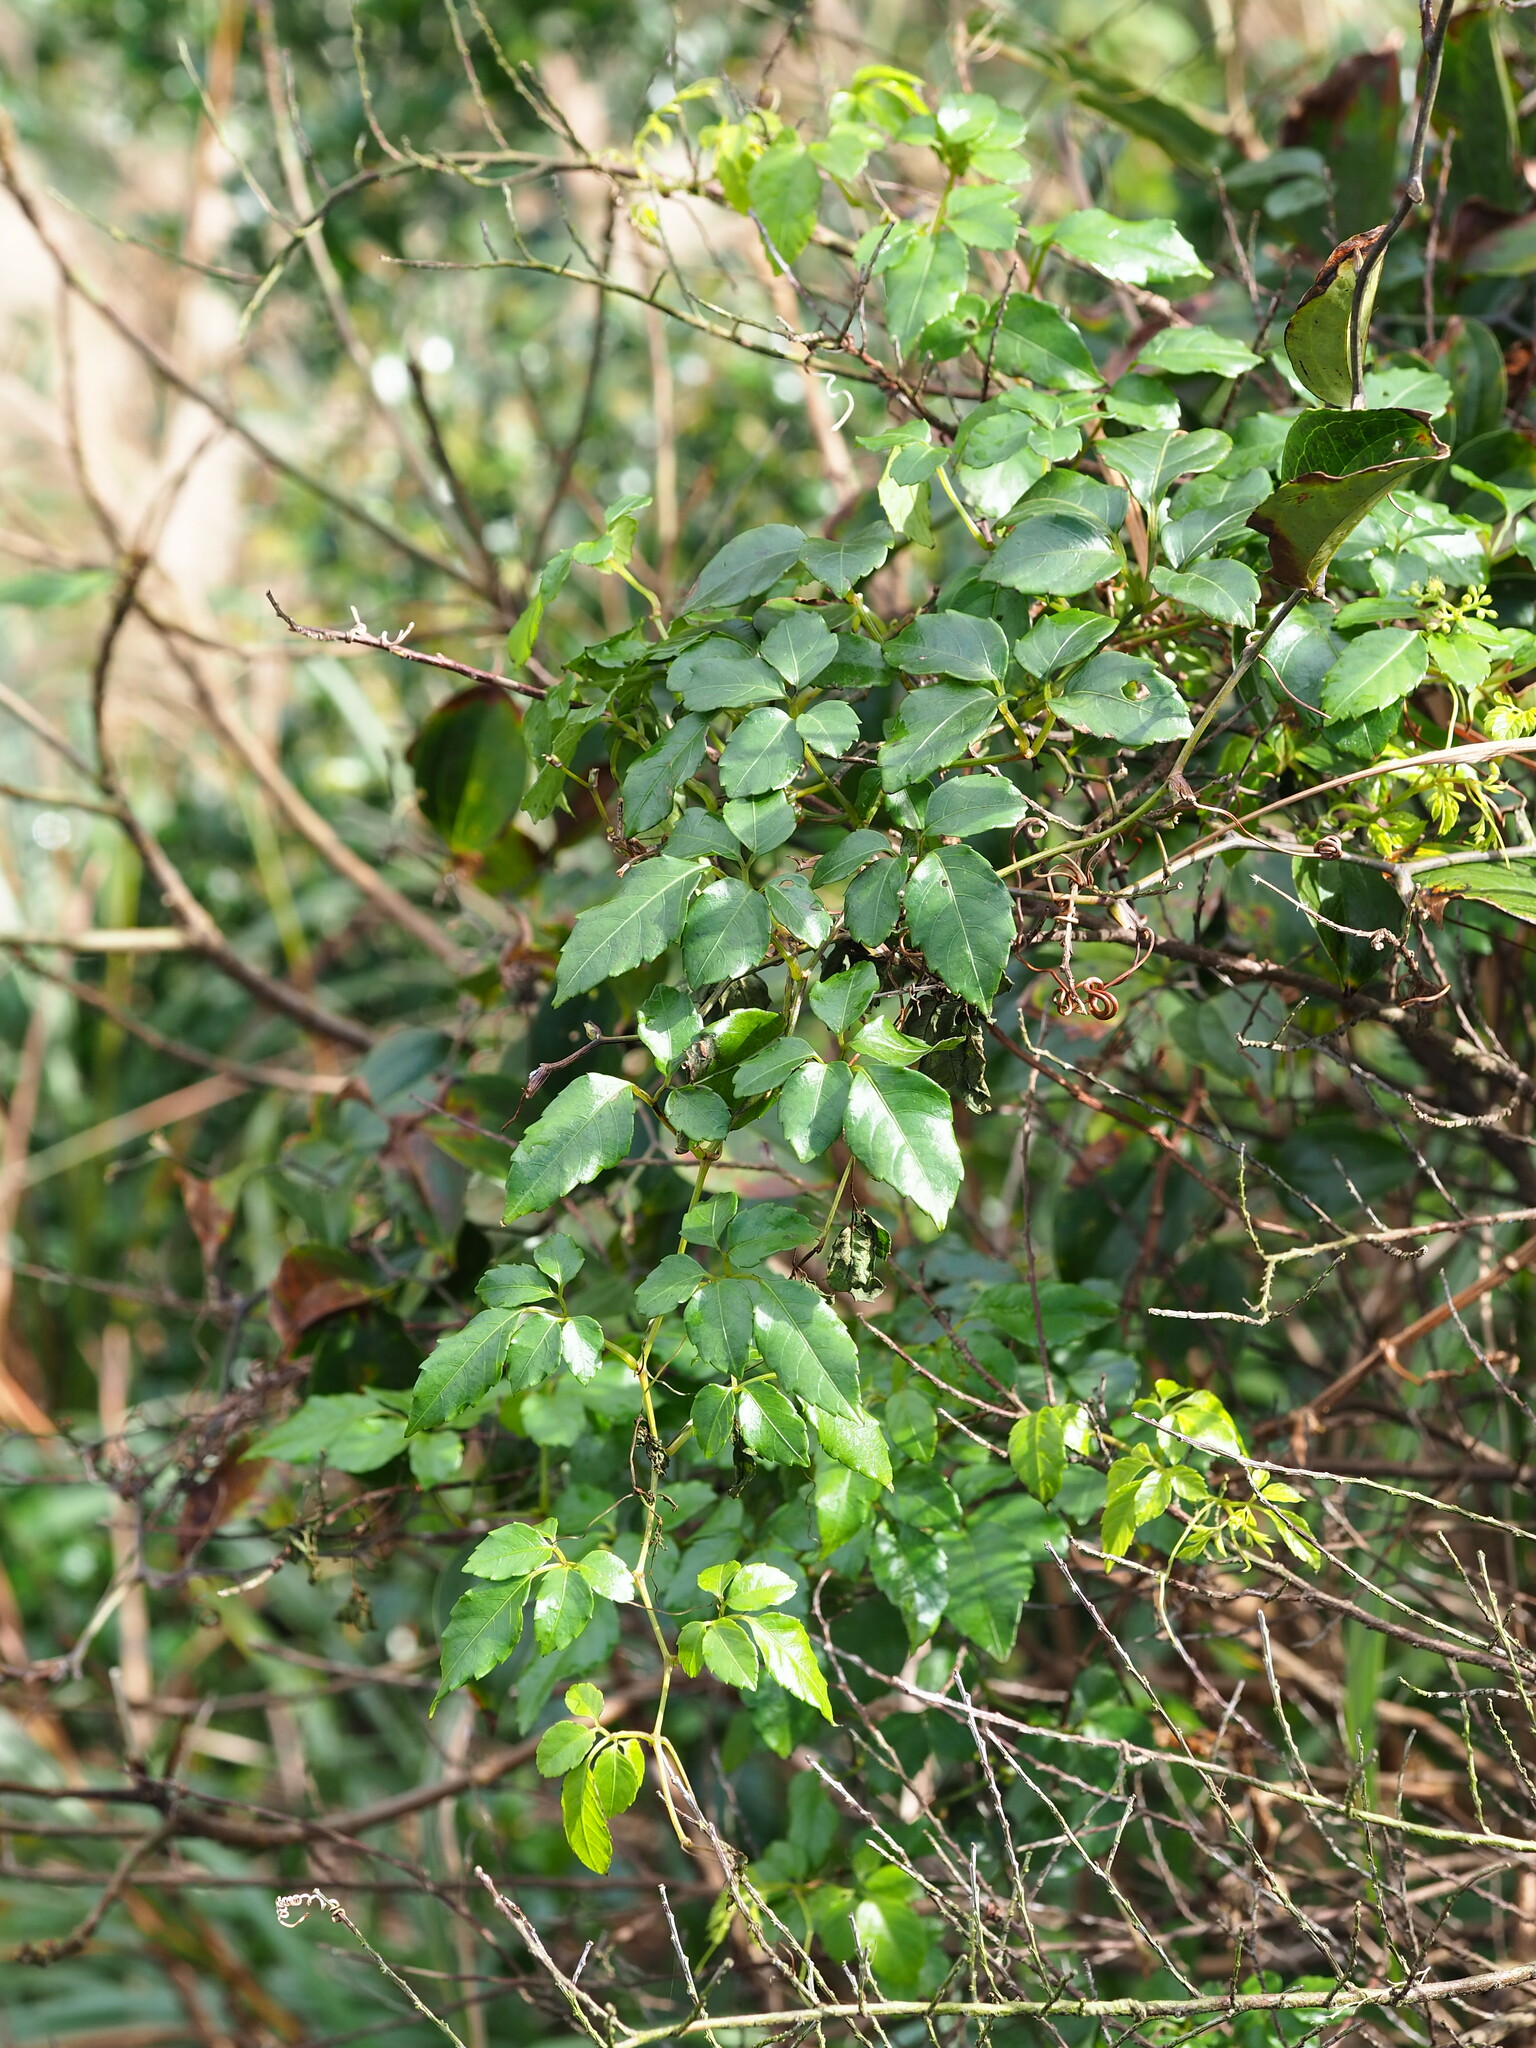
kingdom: Plantae
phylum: Tracheophyta
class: Magnoliopsida
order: Vitales
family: Vitaceae
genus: Causonis
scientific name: Causonis corniculata
